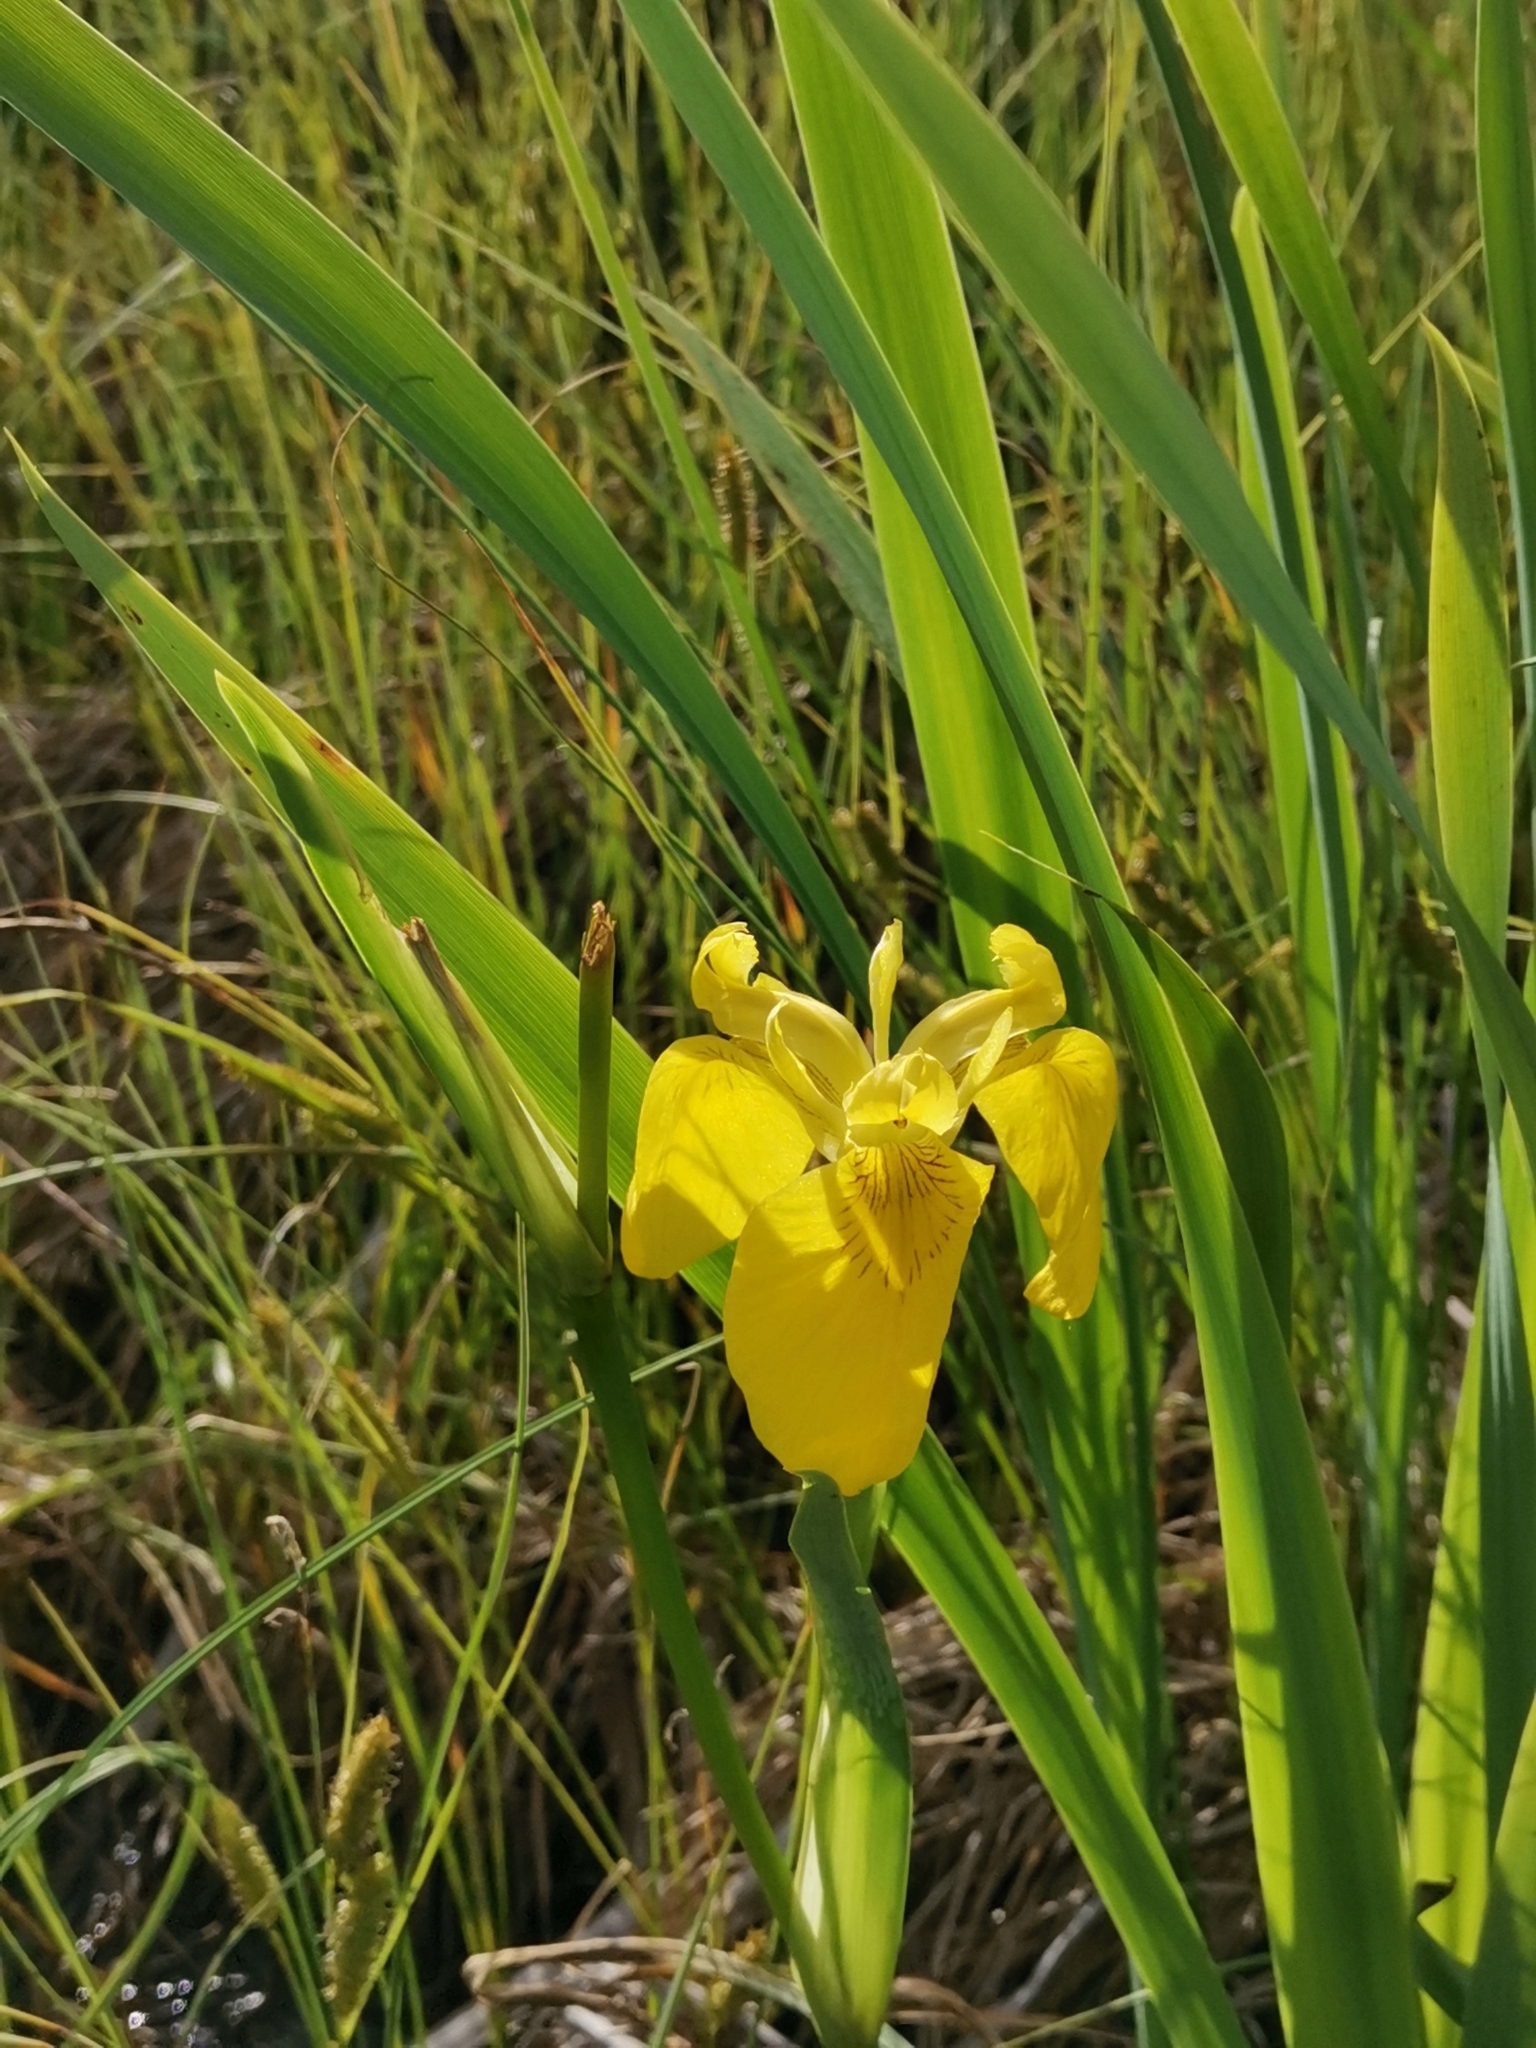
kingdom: Plantae
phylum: Tracheophyta
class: Liliopsida
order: Asparagales
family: Iridaceae
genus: Iris
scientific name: Iris pseudacorus
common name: Yellow flag
